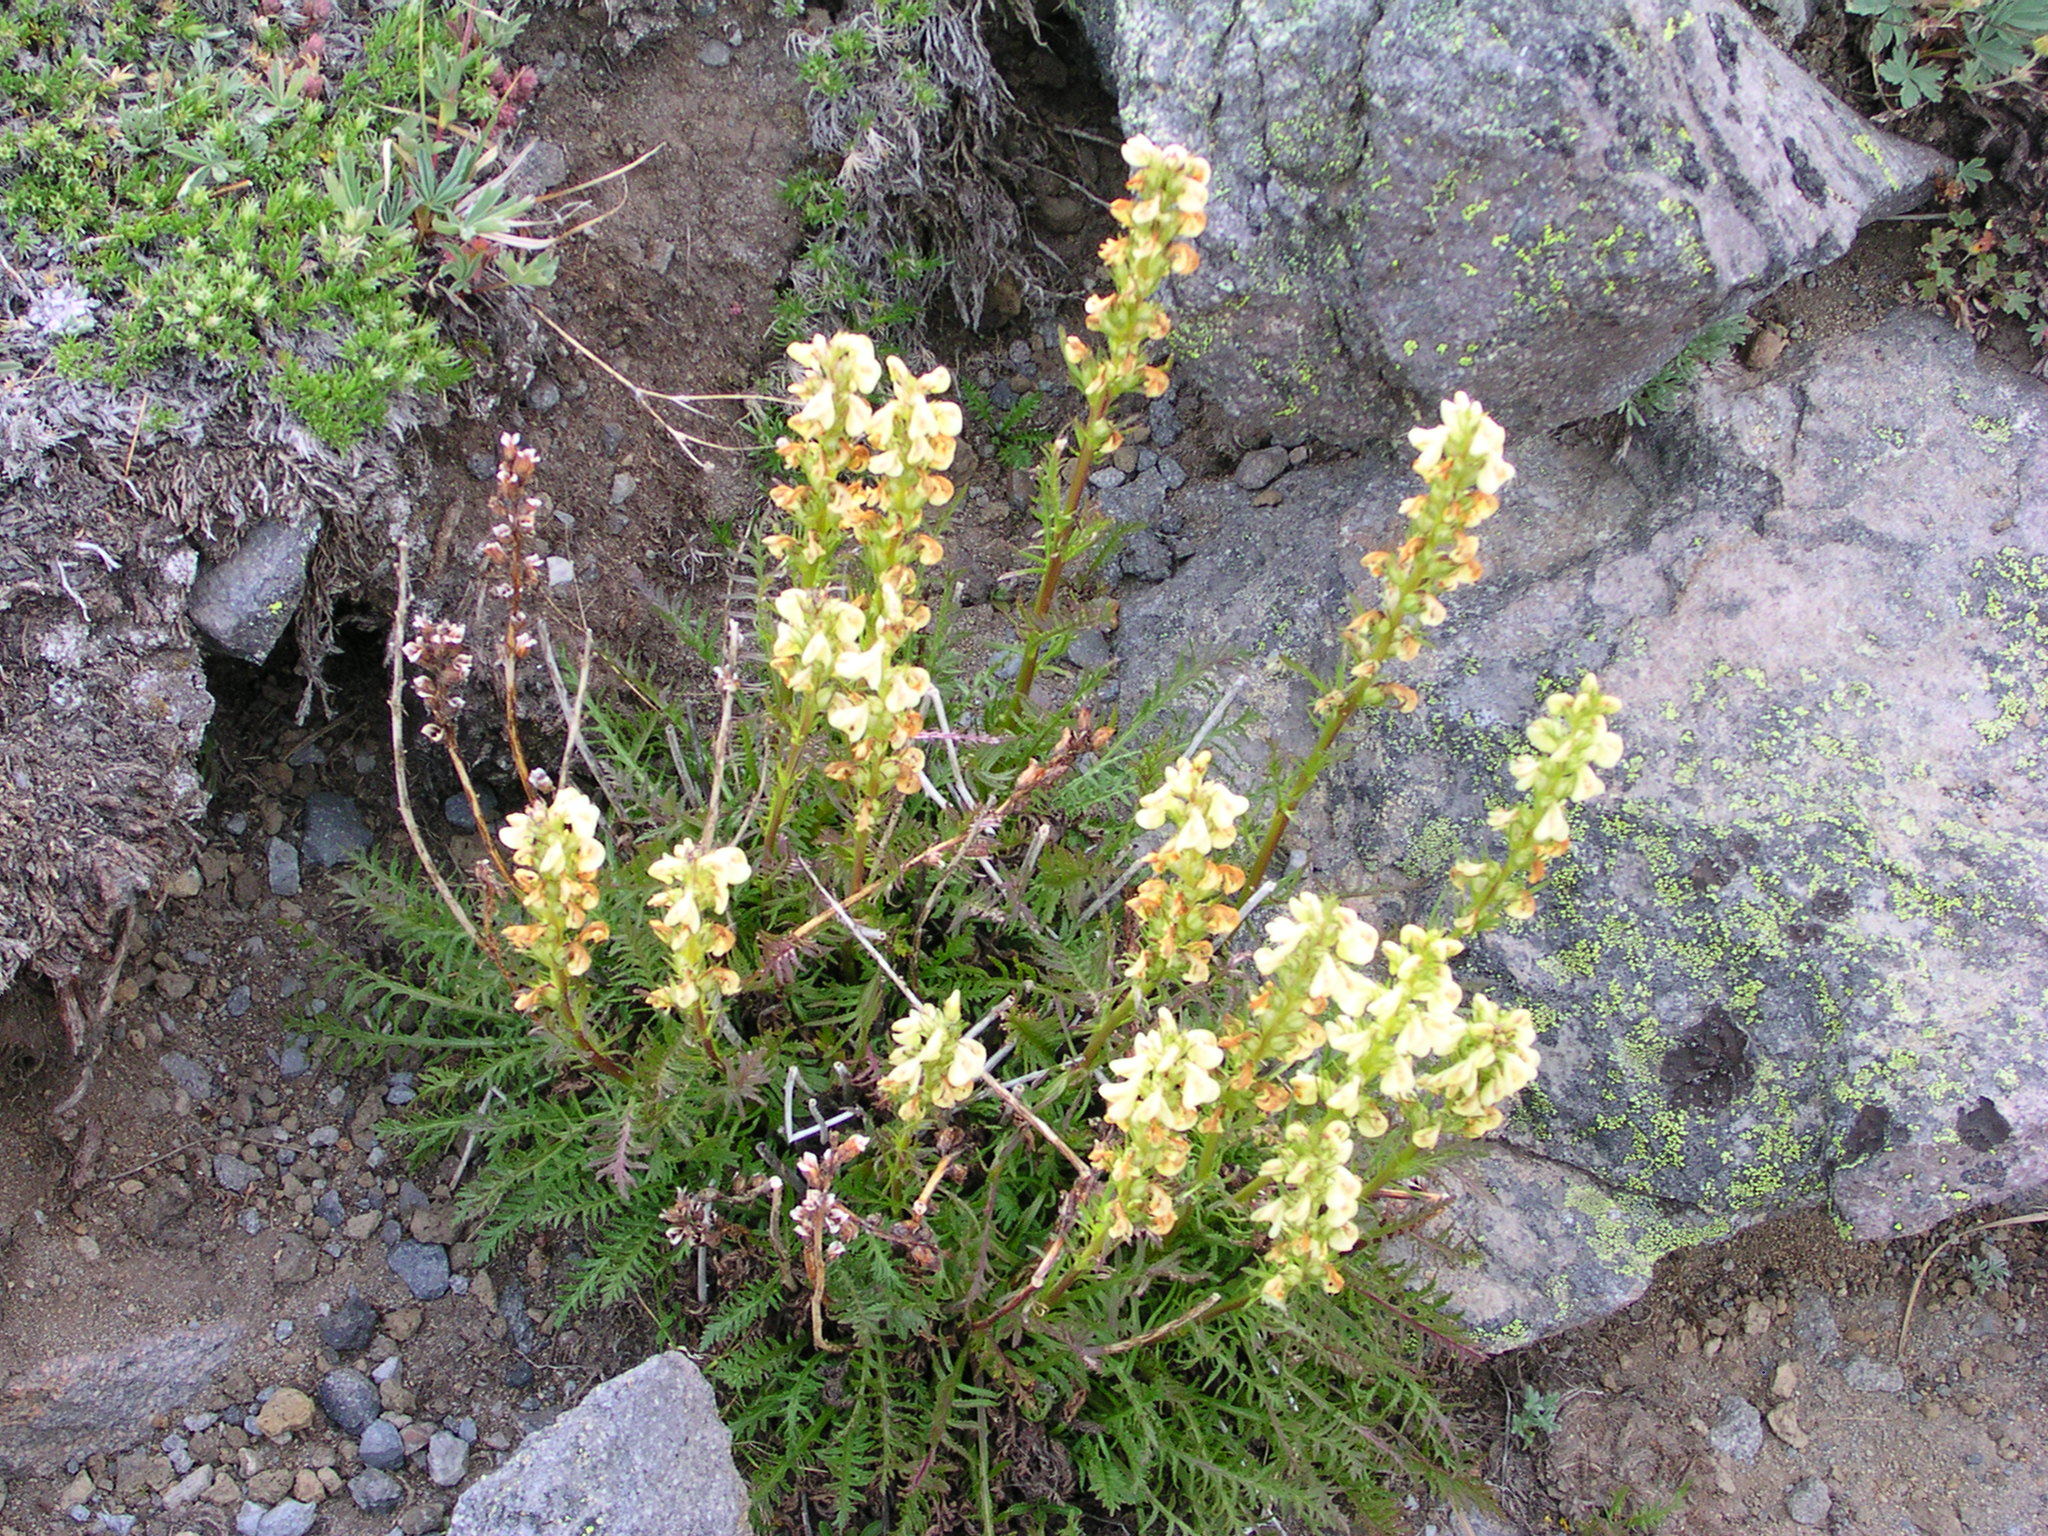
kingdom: Plantae
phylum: Tracheophyta
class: Magnoliopsida
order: Lamiales
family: Orobanchaceae
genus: Pedicularis
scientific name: Pedicularis contorta
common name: Coiled lousewort
